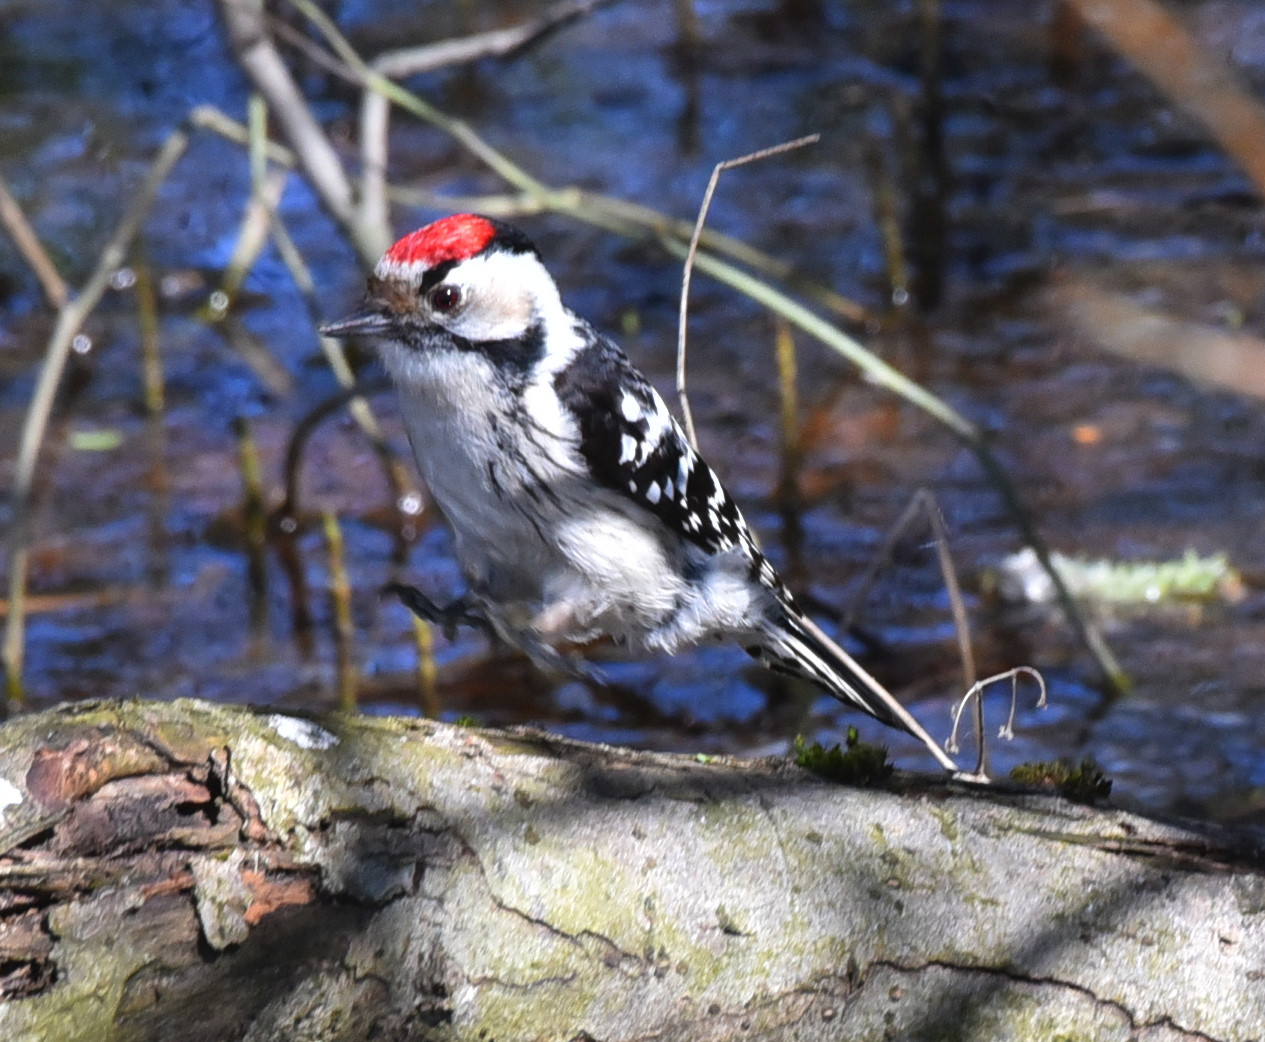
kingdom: Animalia
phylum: Chordata
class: Aves
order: Piciformes
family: Picidae
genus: Dryobates
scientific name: Dryobates minor
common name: Lesser spotted woodpecker
